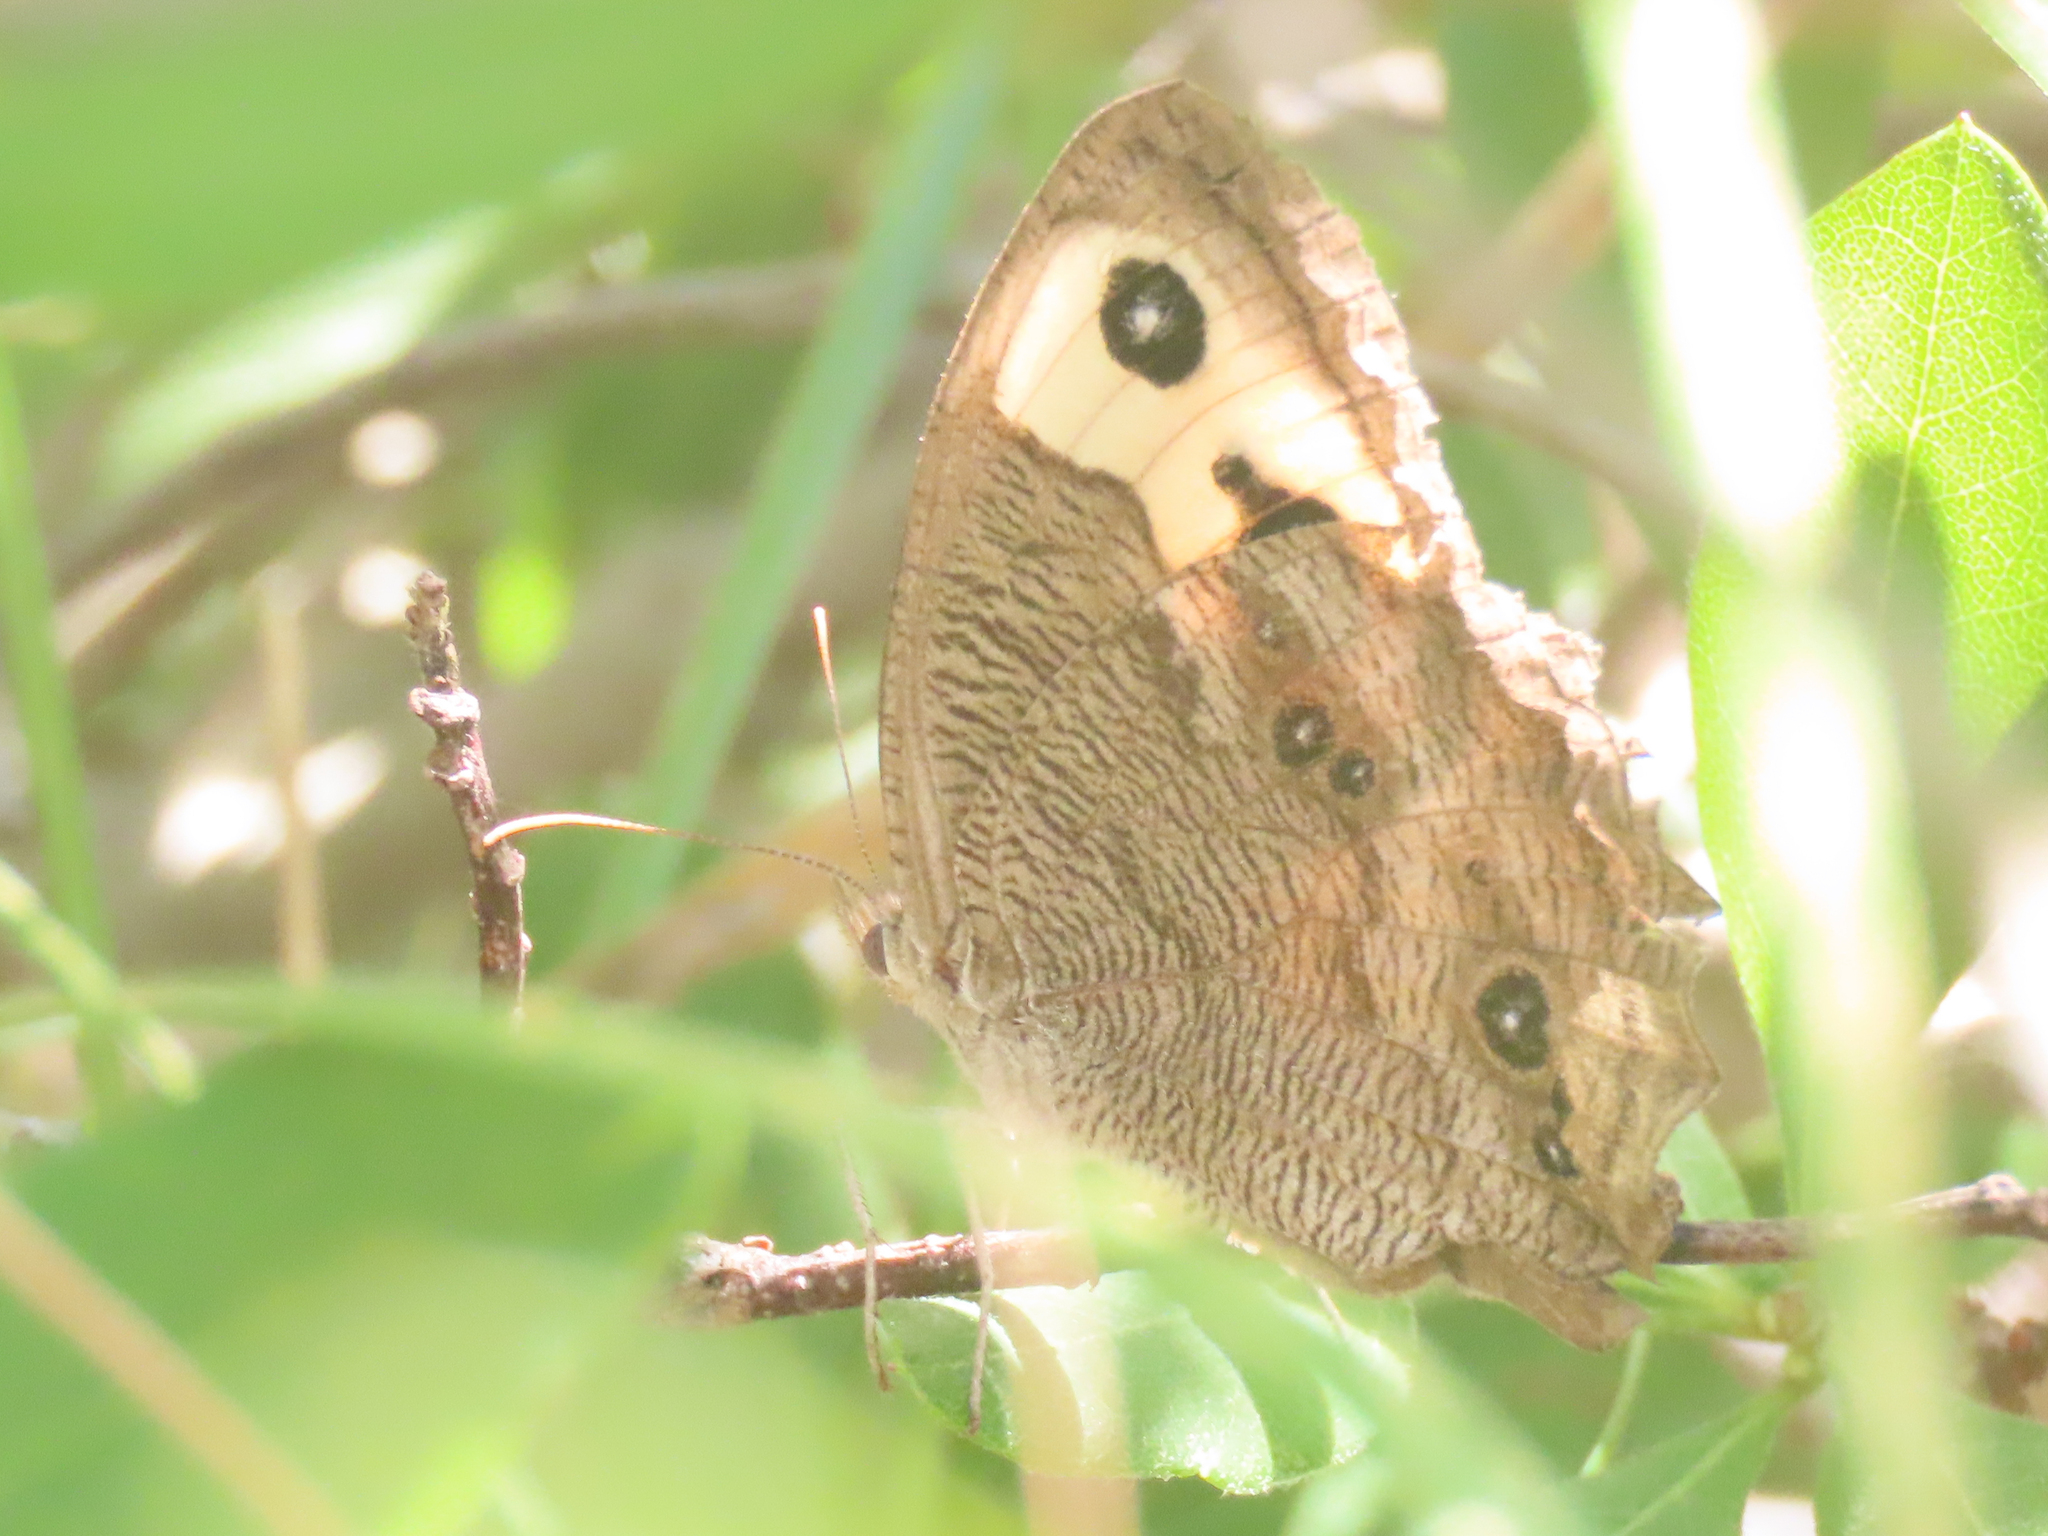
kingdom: Animalia
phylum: Arthropoda
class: Insecta
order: Lepidoptera
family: Nymphalidae
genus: Cercyonis
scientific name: Cercyonis pegala
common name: Common wood-nymph
